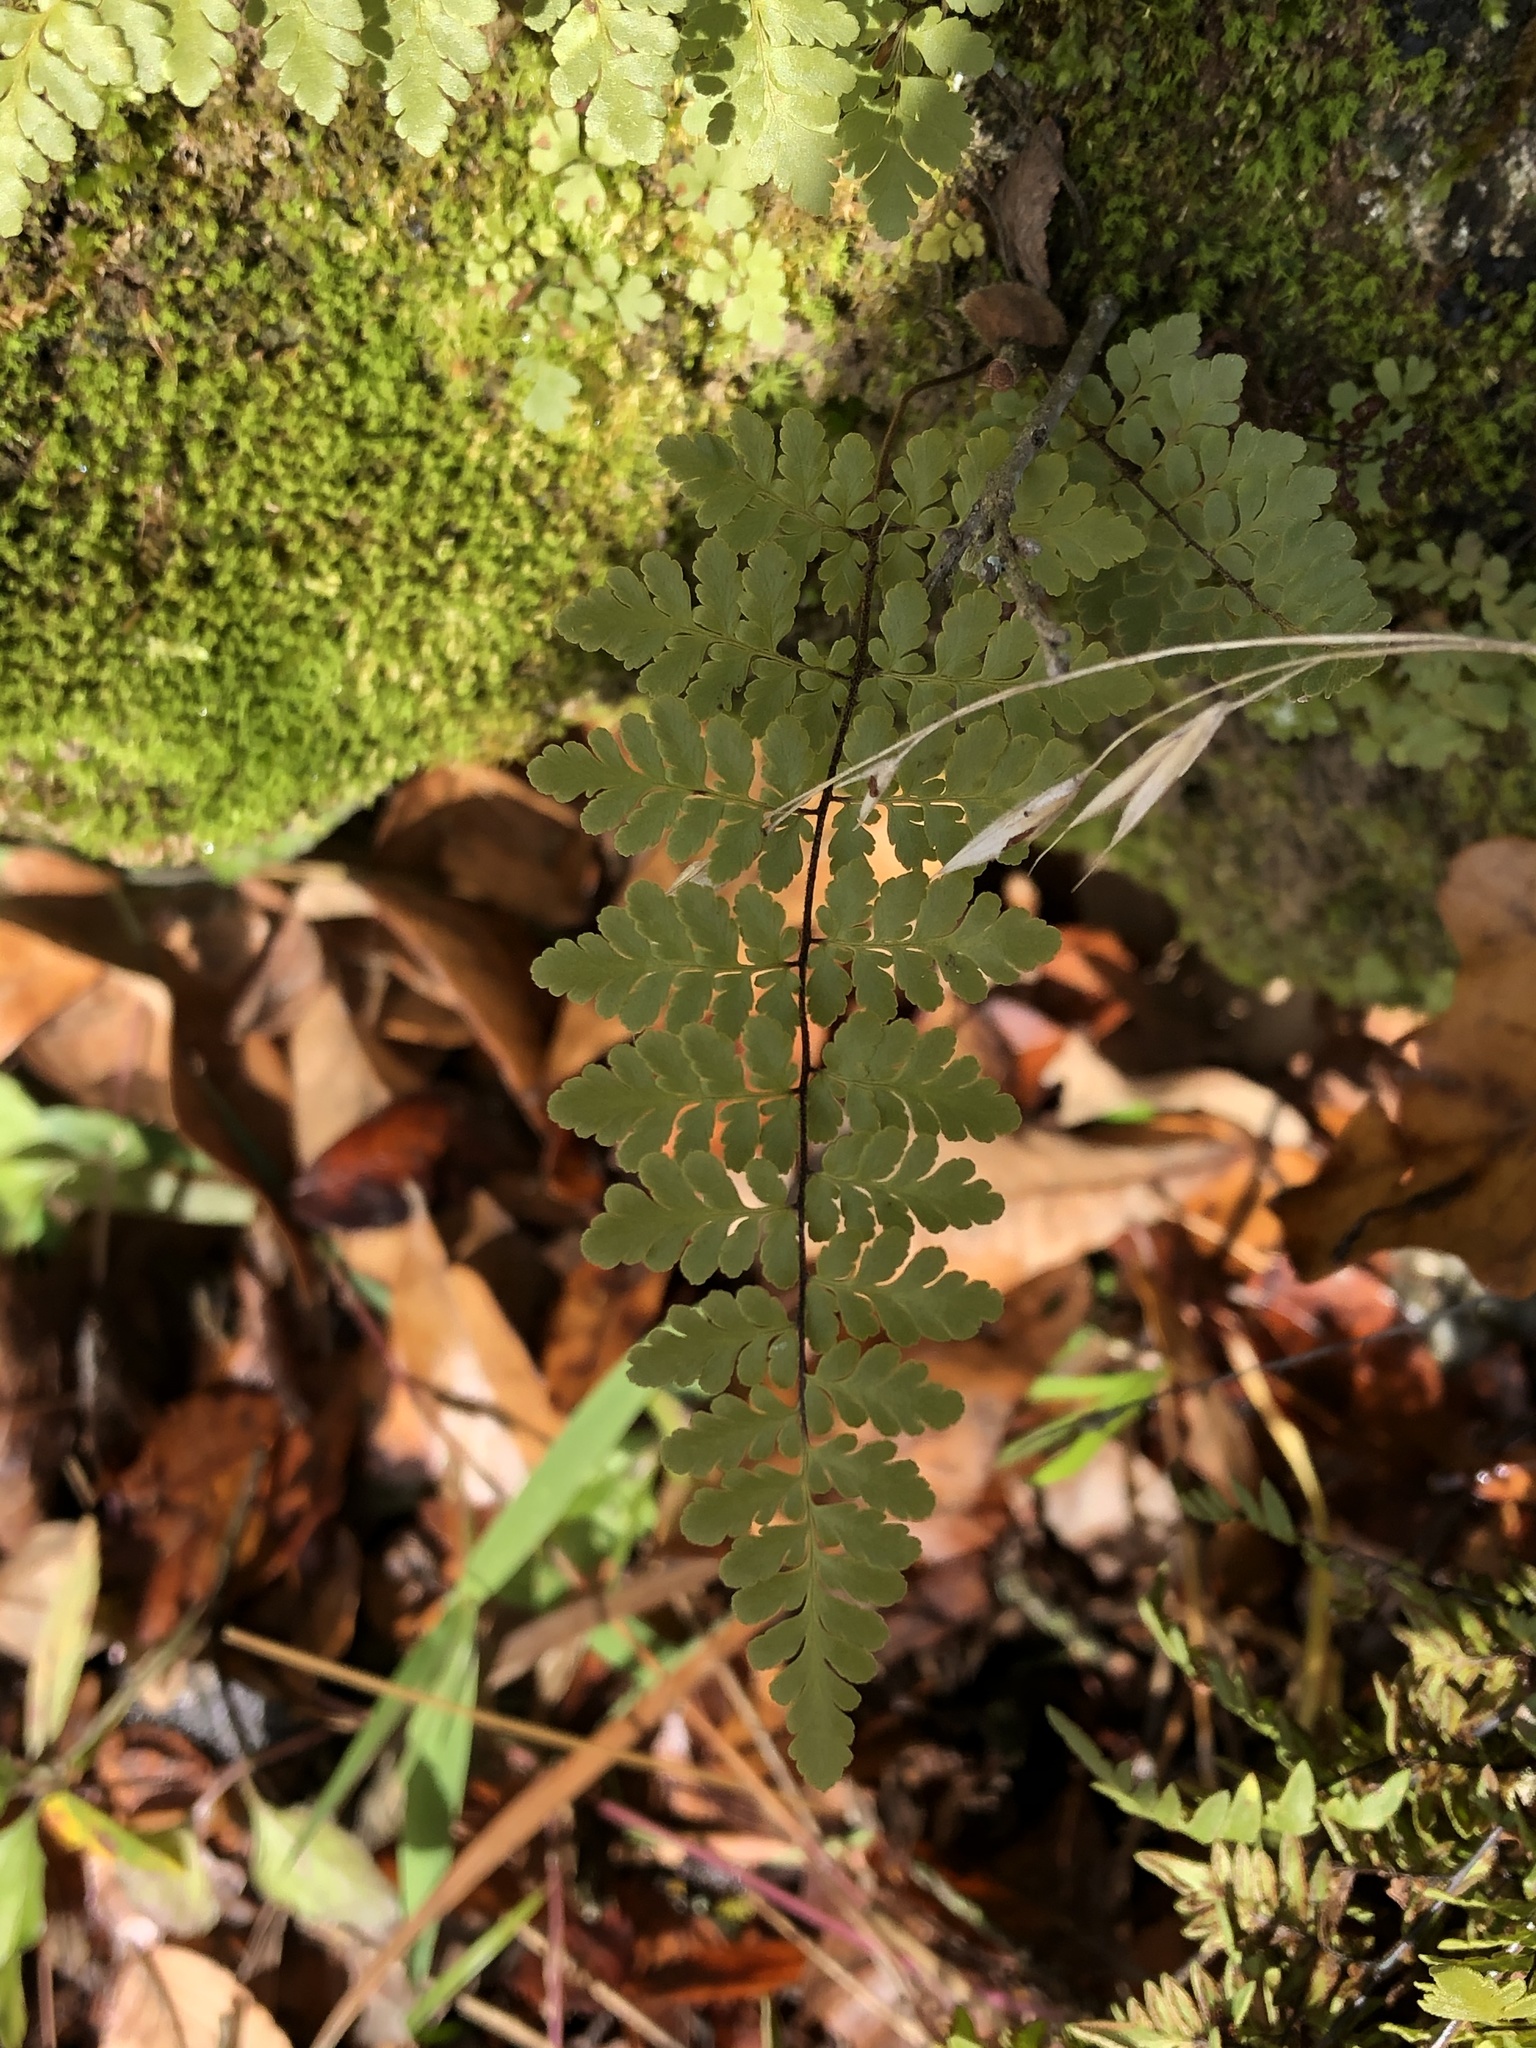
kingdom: Plantae
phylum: Tracheophyta
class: Polypodiopsida
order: Polypodiales
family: Pteridaceae
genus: Myriopteris
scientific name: Myriopteris alabamensis
